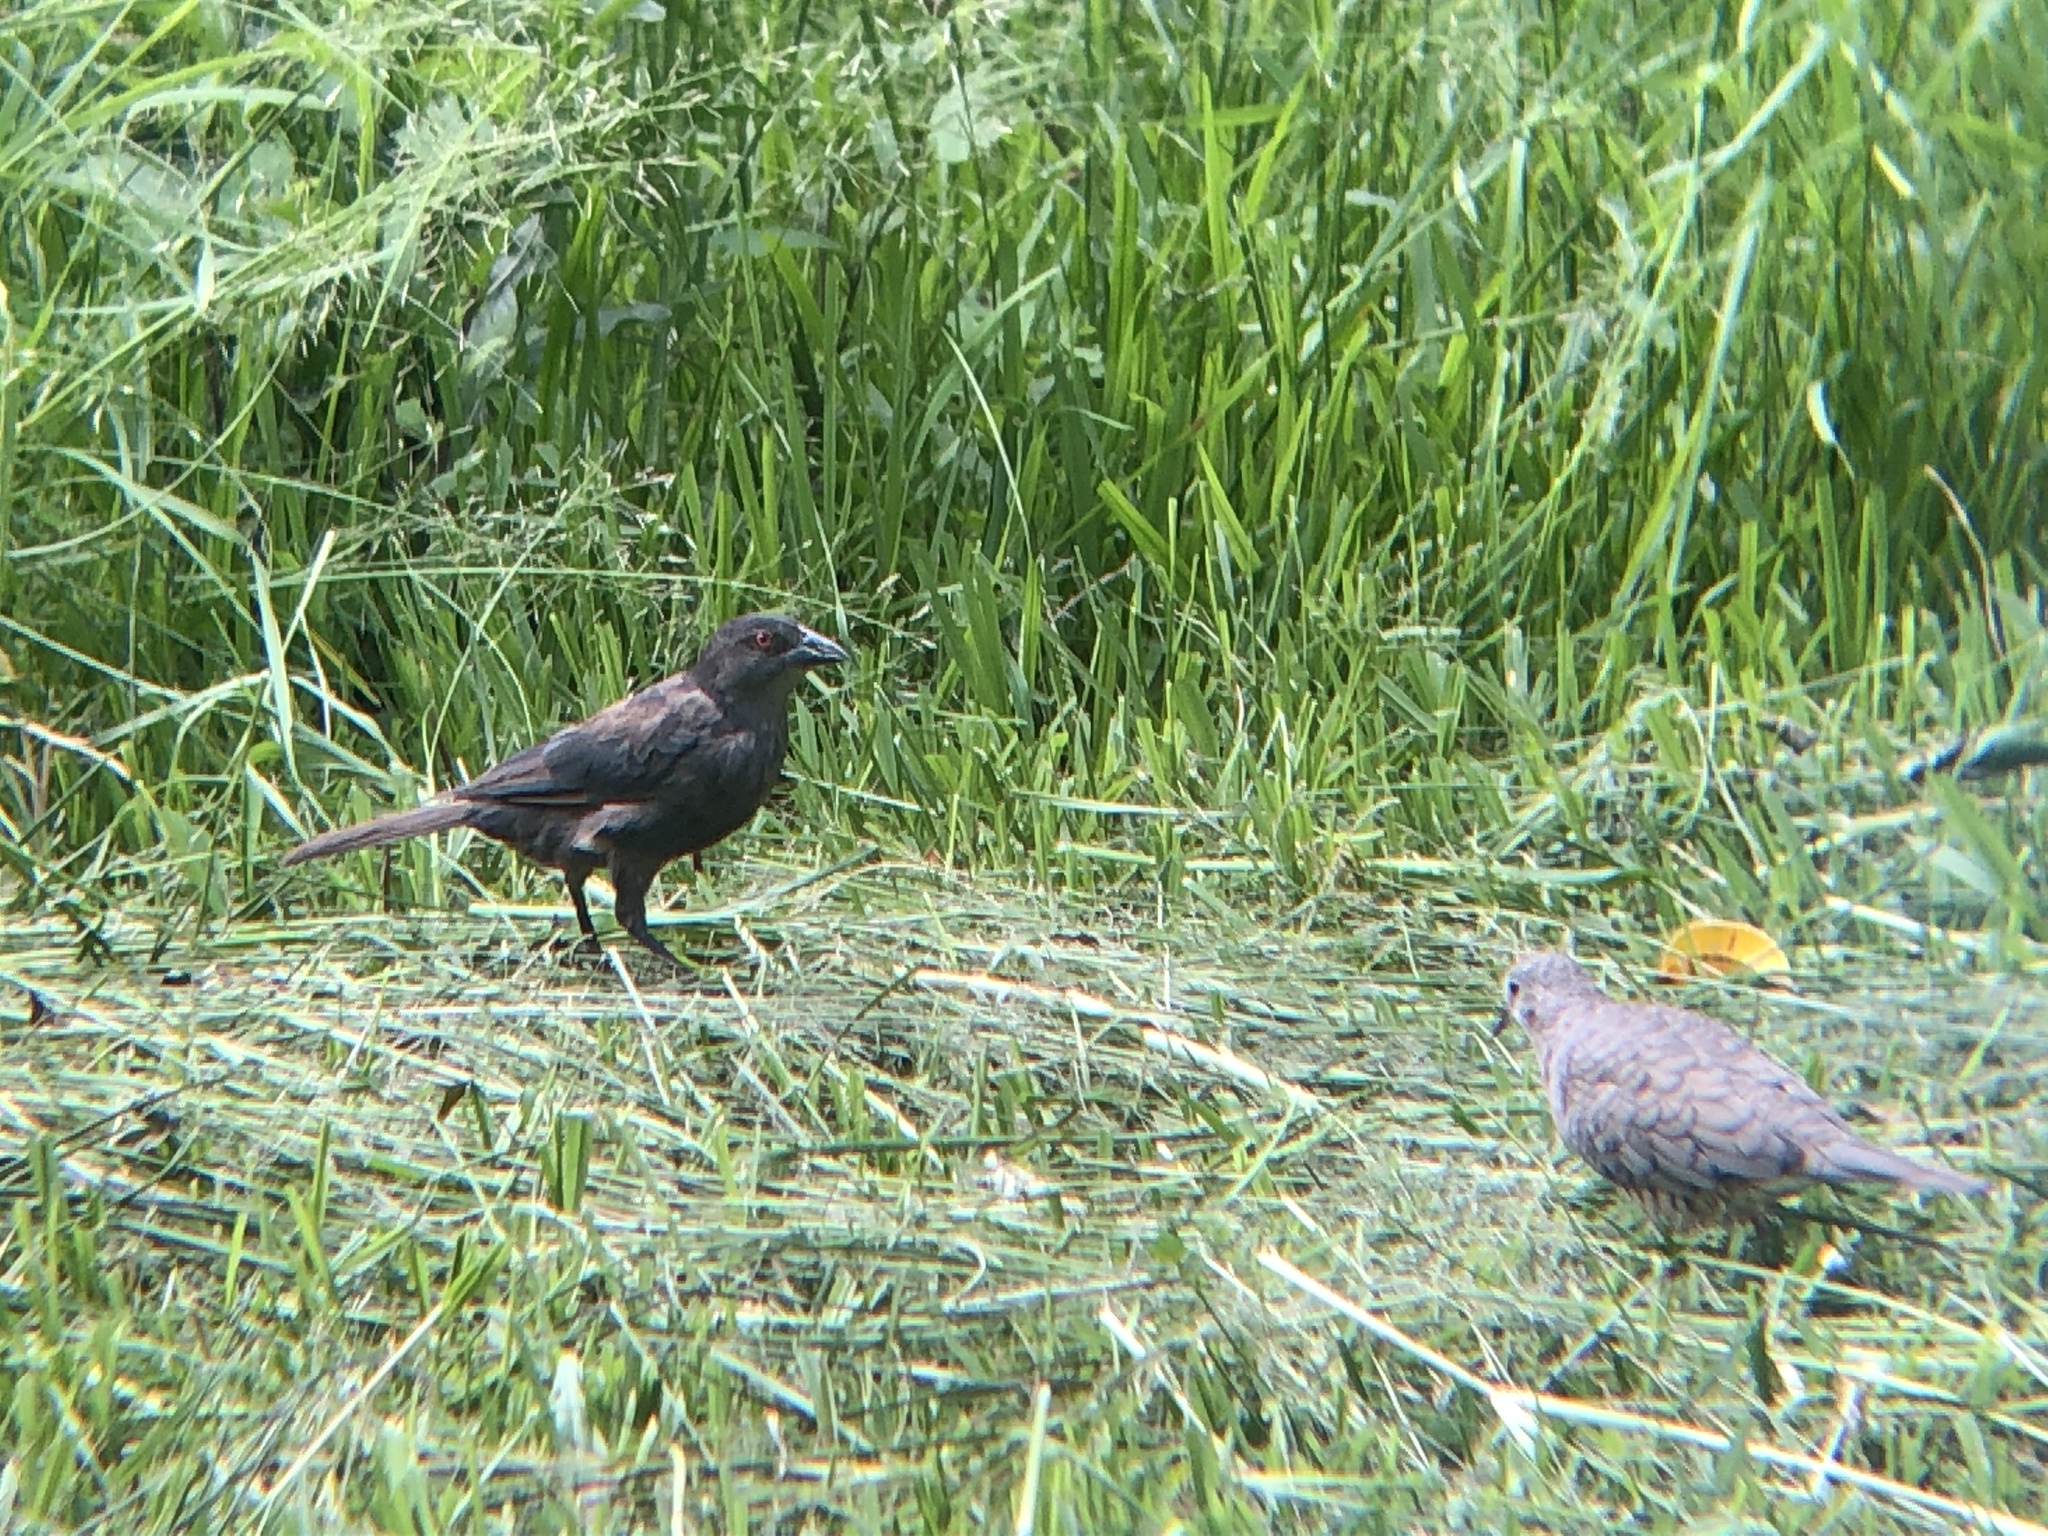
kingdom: Animalia
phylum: Chordata
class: Aves
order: Passeriformes
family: Icteridae
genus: Molothrus
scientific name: Molothrus aeneus
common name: Bronzed cowbird
